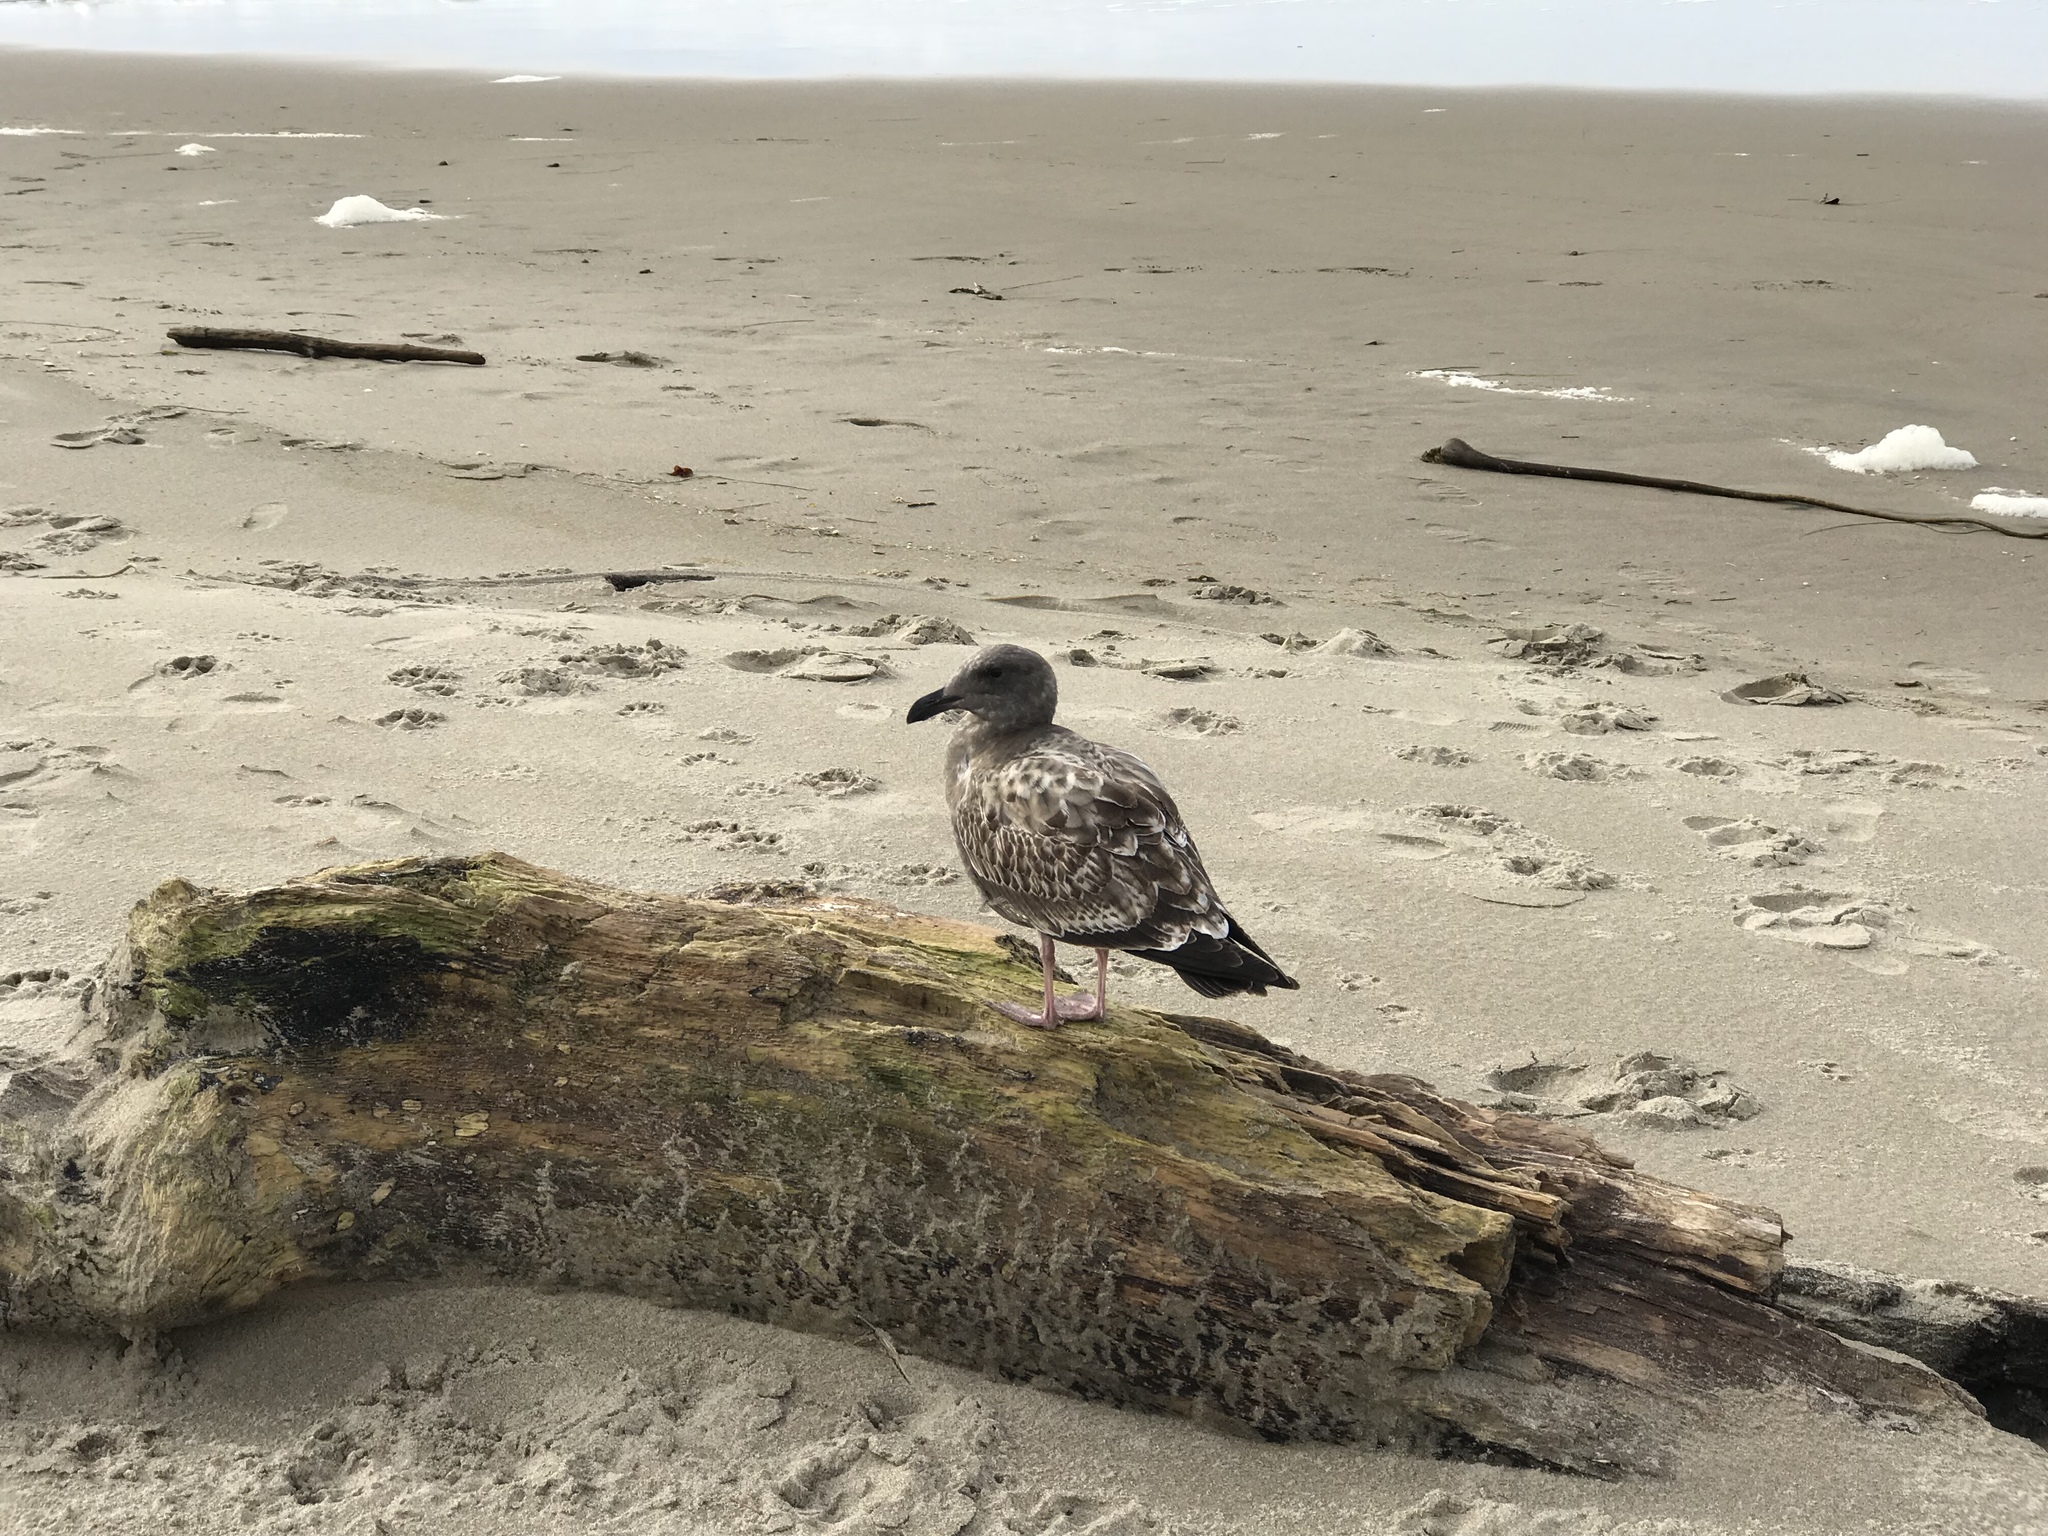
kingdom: Animalia
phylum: Chordata
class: Aves
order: Charadriiformes
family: Laridae
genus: Larus
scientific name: Larus occidentalis
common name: Western gull
